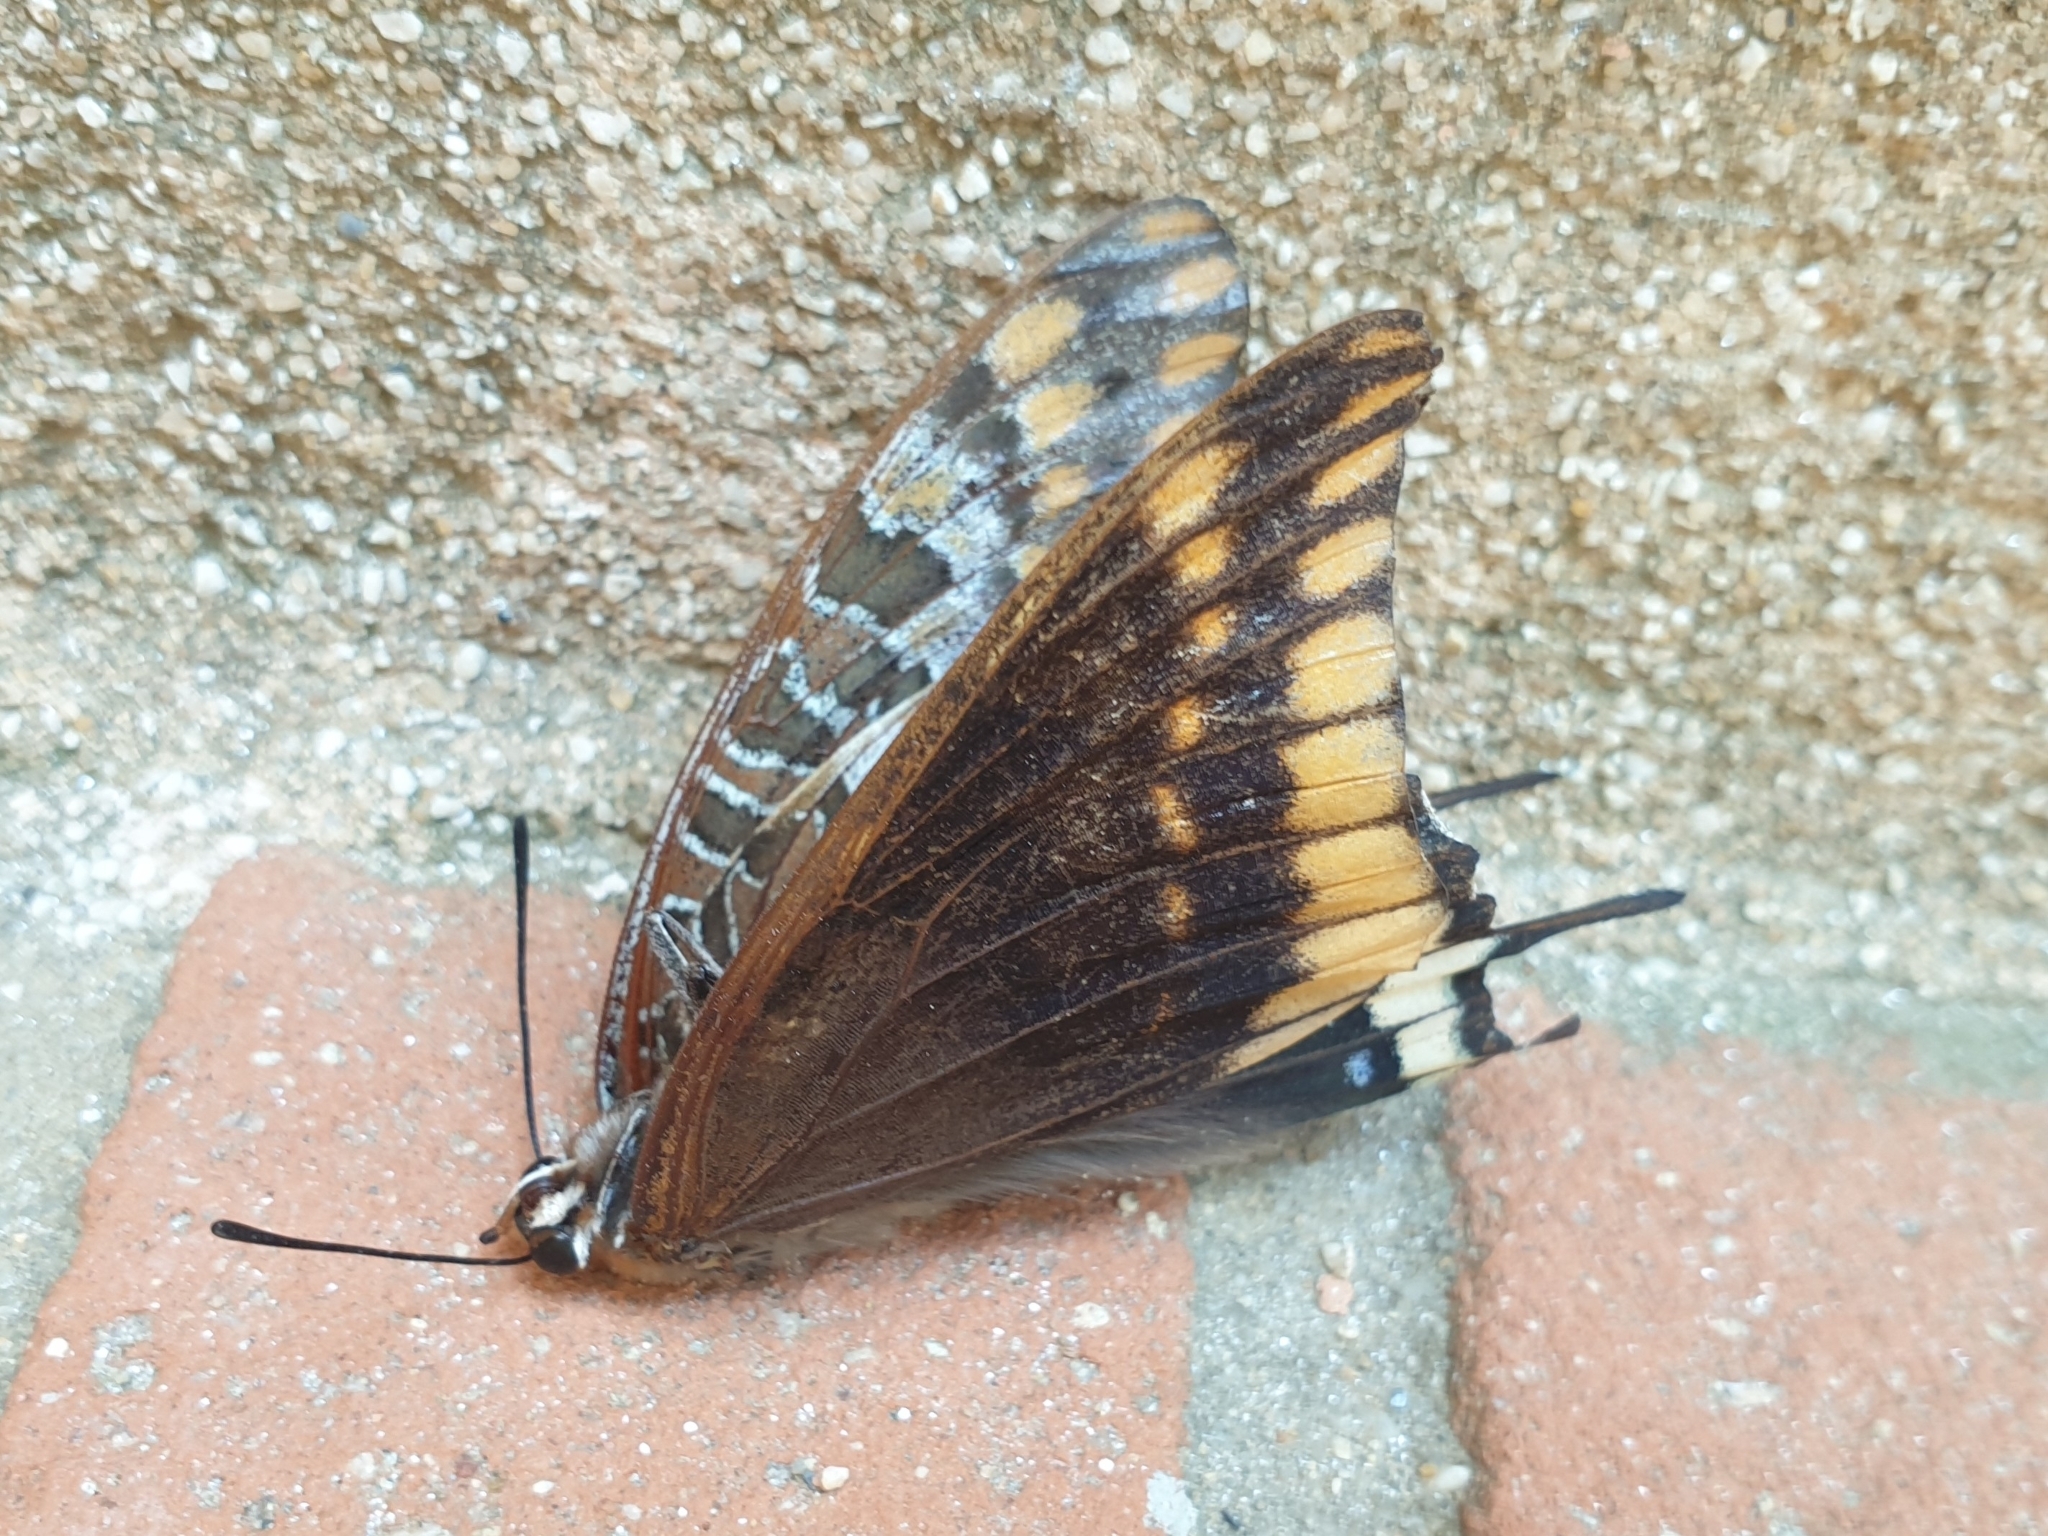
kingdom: Animalia
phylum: Arthropoda
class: Insecta
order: Lepidoptera
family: Nymphalidae
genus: Charaxes
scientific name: Charaxes jasius
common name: Two tailed pasha
